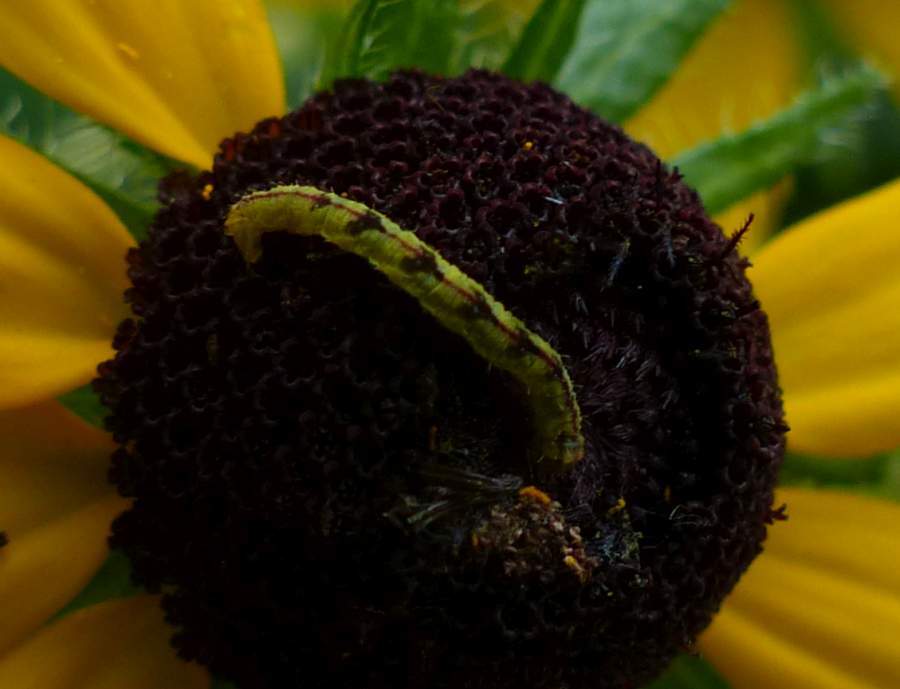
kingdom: Animalia
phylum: Arthropoda
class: Insecta
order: Lepidoptera
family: Geometridae
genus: Eupithecia
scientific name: Eupithecia miserulata
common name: Common eupithecia
